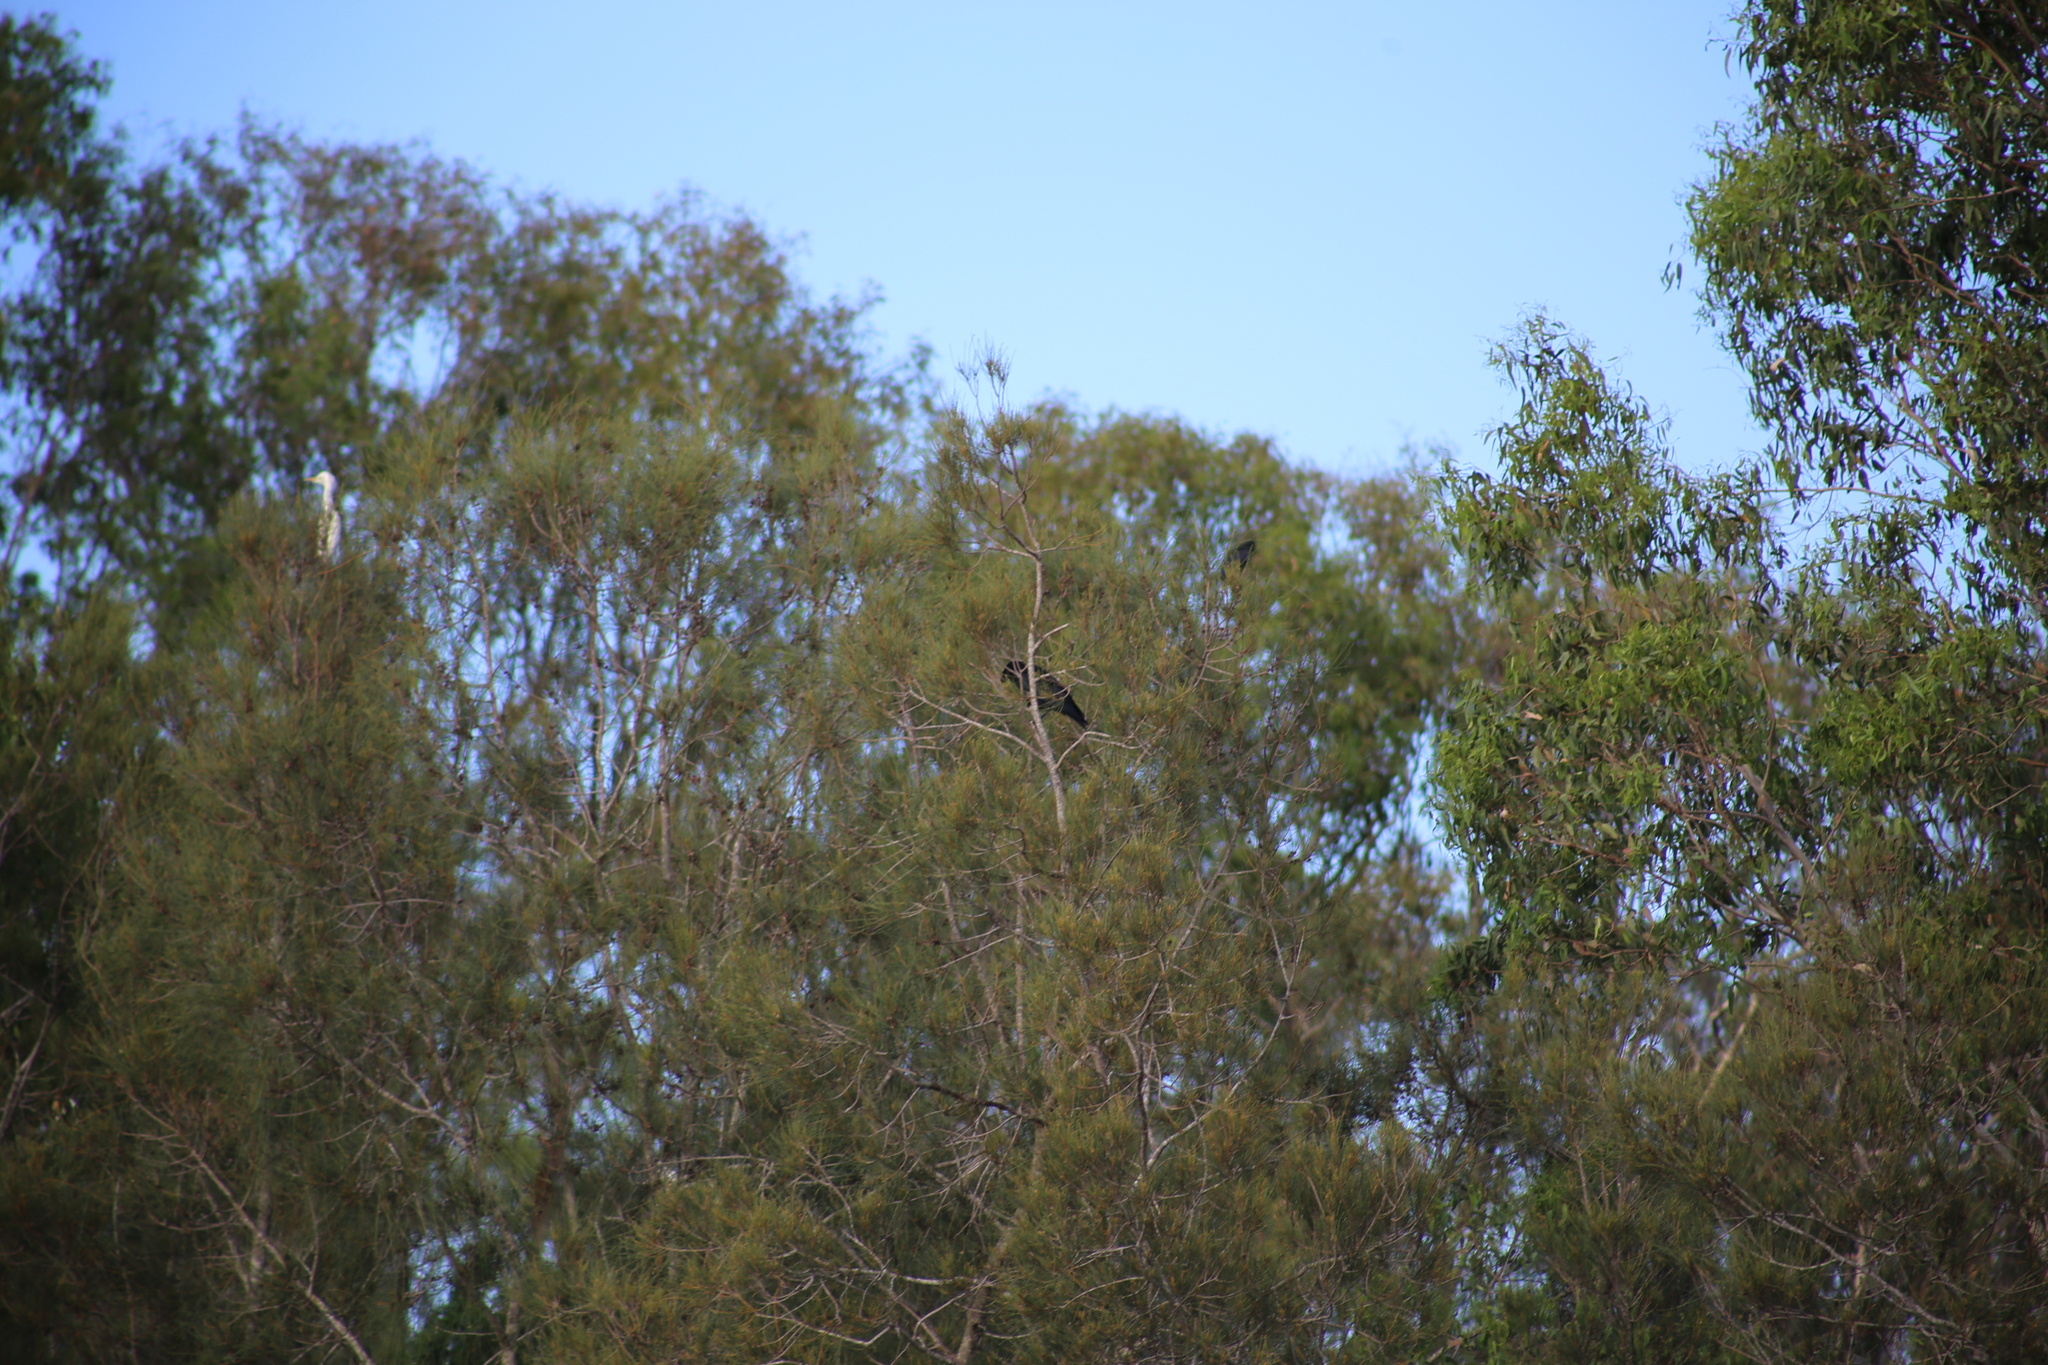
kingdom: Animalia
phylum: Chordata
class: Aves
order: Passeriformes
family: Corvidae
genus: Corvus
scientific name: Corvus orru
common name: Torresian crow
